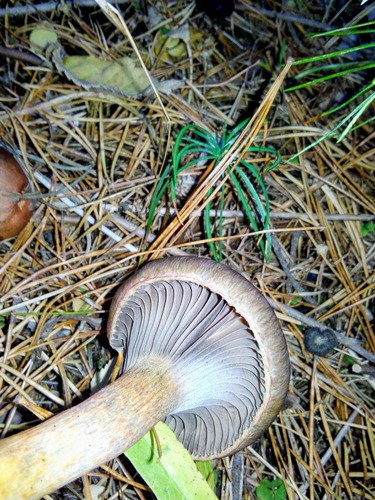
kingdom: Fungi
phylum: Basidiomycota
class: Agaricomycetes
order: Boletales
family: Gomphidiaceae
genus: Chroogomphus
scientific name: Chroogomphus
